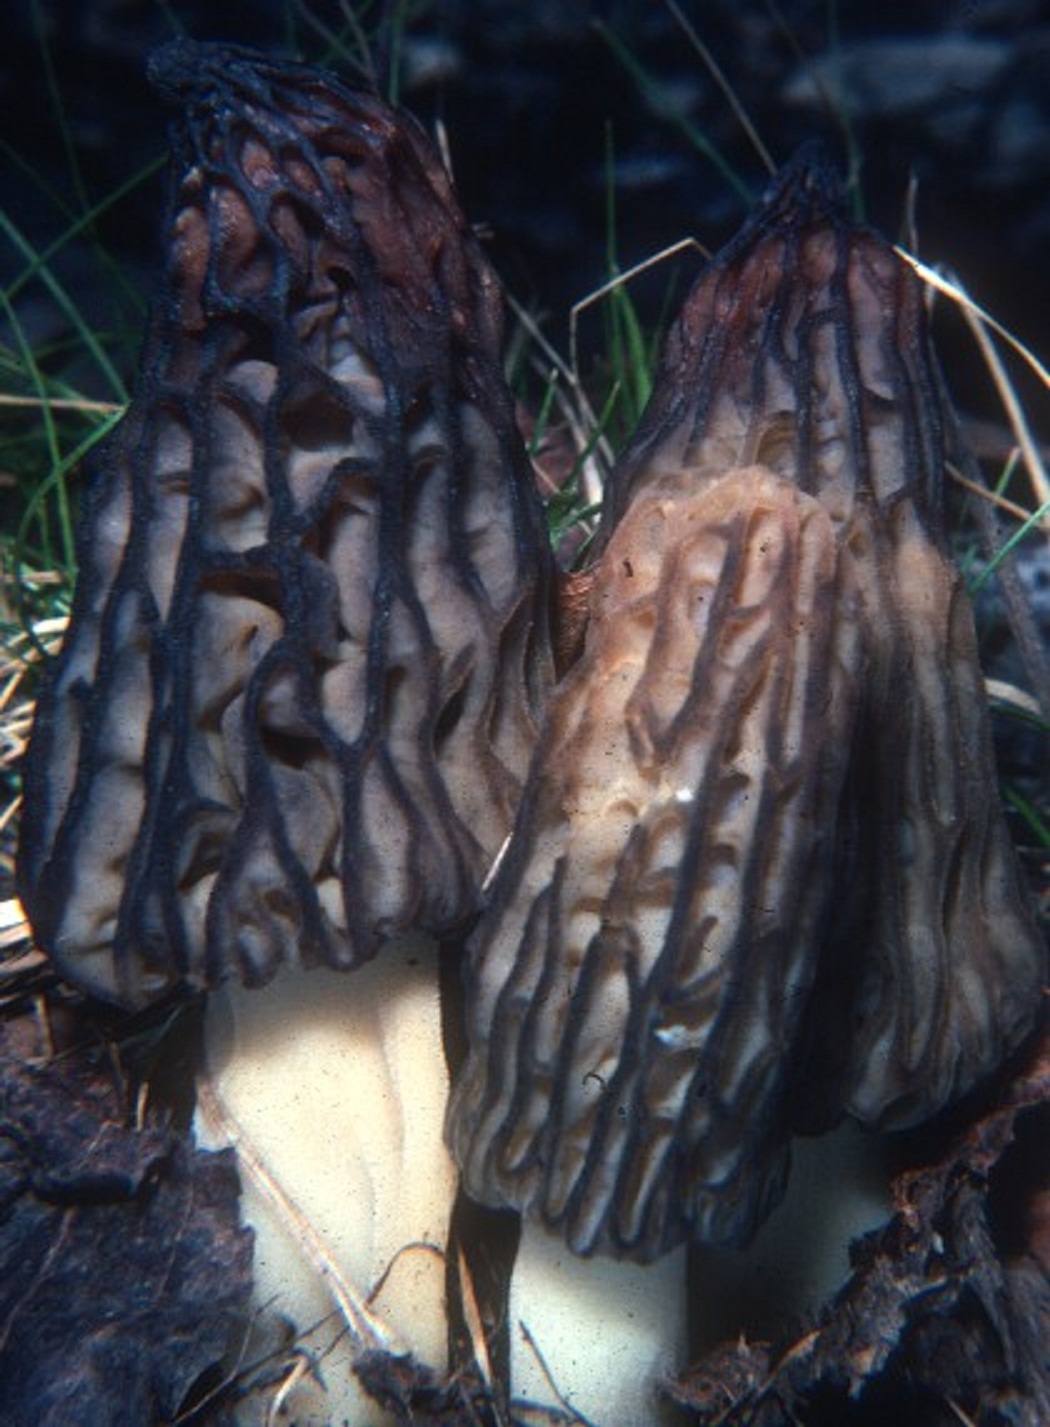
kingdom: Fungi
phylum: Ascomycota
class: Pezizomycetes
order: Pezizales
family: Morchellaceae
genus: Morchella
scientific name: Morchella angusticeps
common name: Black morel
